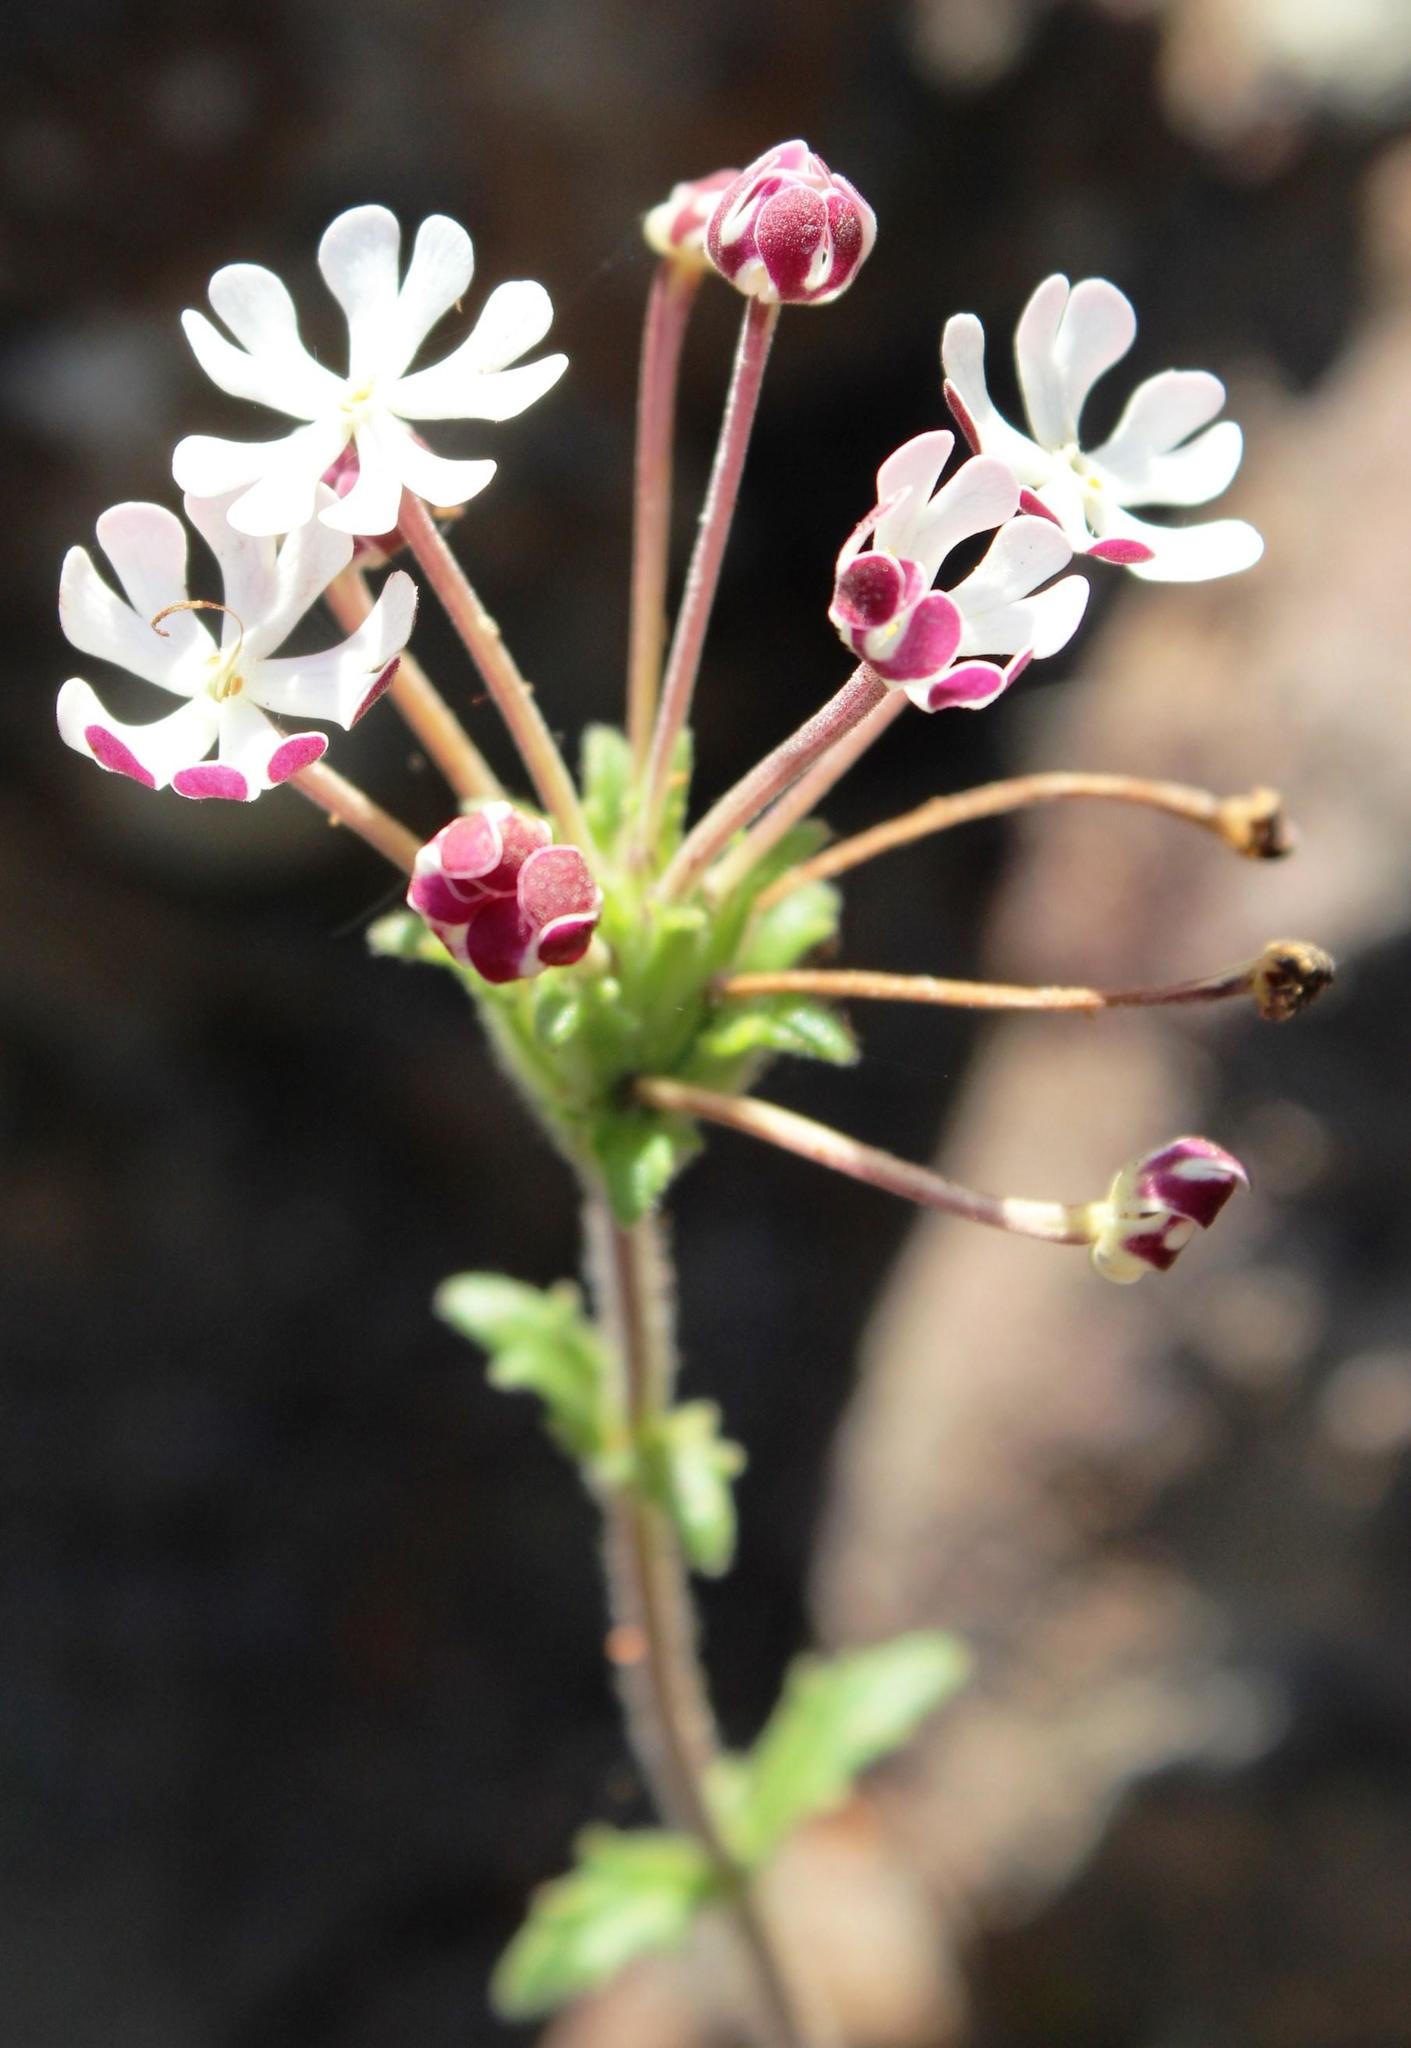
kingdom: Plantae
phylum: Tracheophyta
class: Magnoliopsida
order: Lamiales
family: Scrophulariaceae
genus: Zaluzianskya
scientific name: Zaluzianskya capensis
